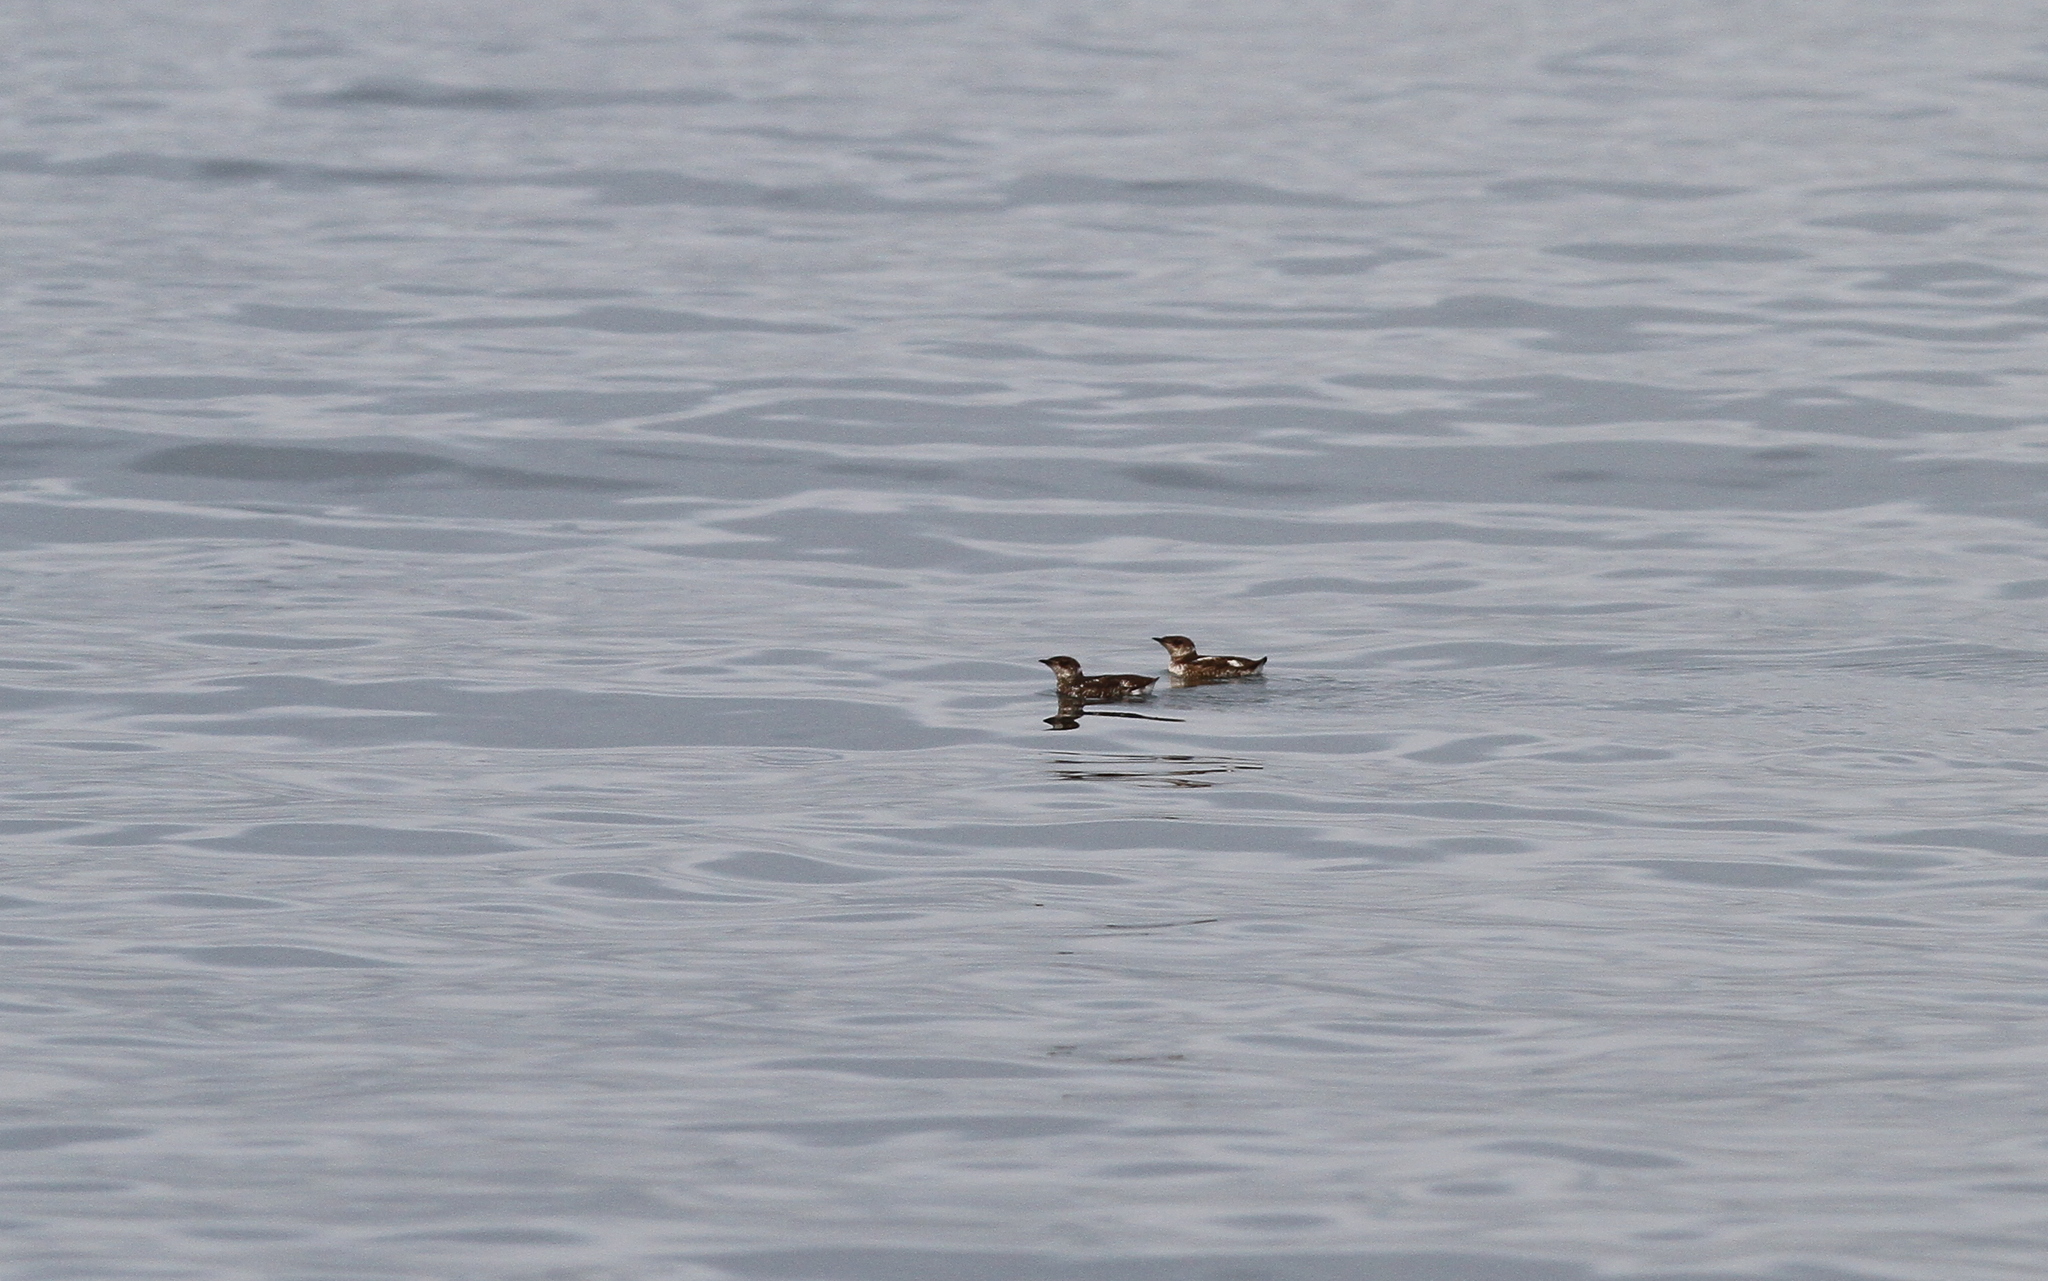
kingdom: Animalia
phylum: Chordata
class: Aves
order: Charadriiformes
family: Alcidae
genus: Brachyramphus
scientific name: Brachyramphus marmoratus
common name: Marbled murrelet
